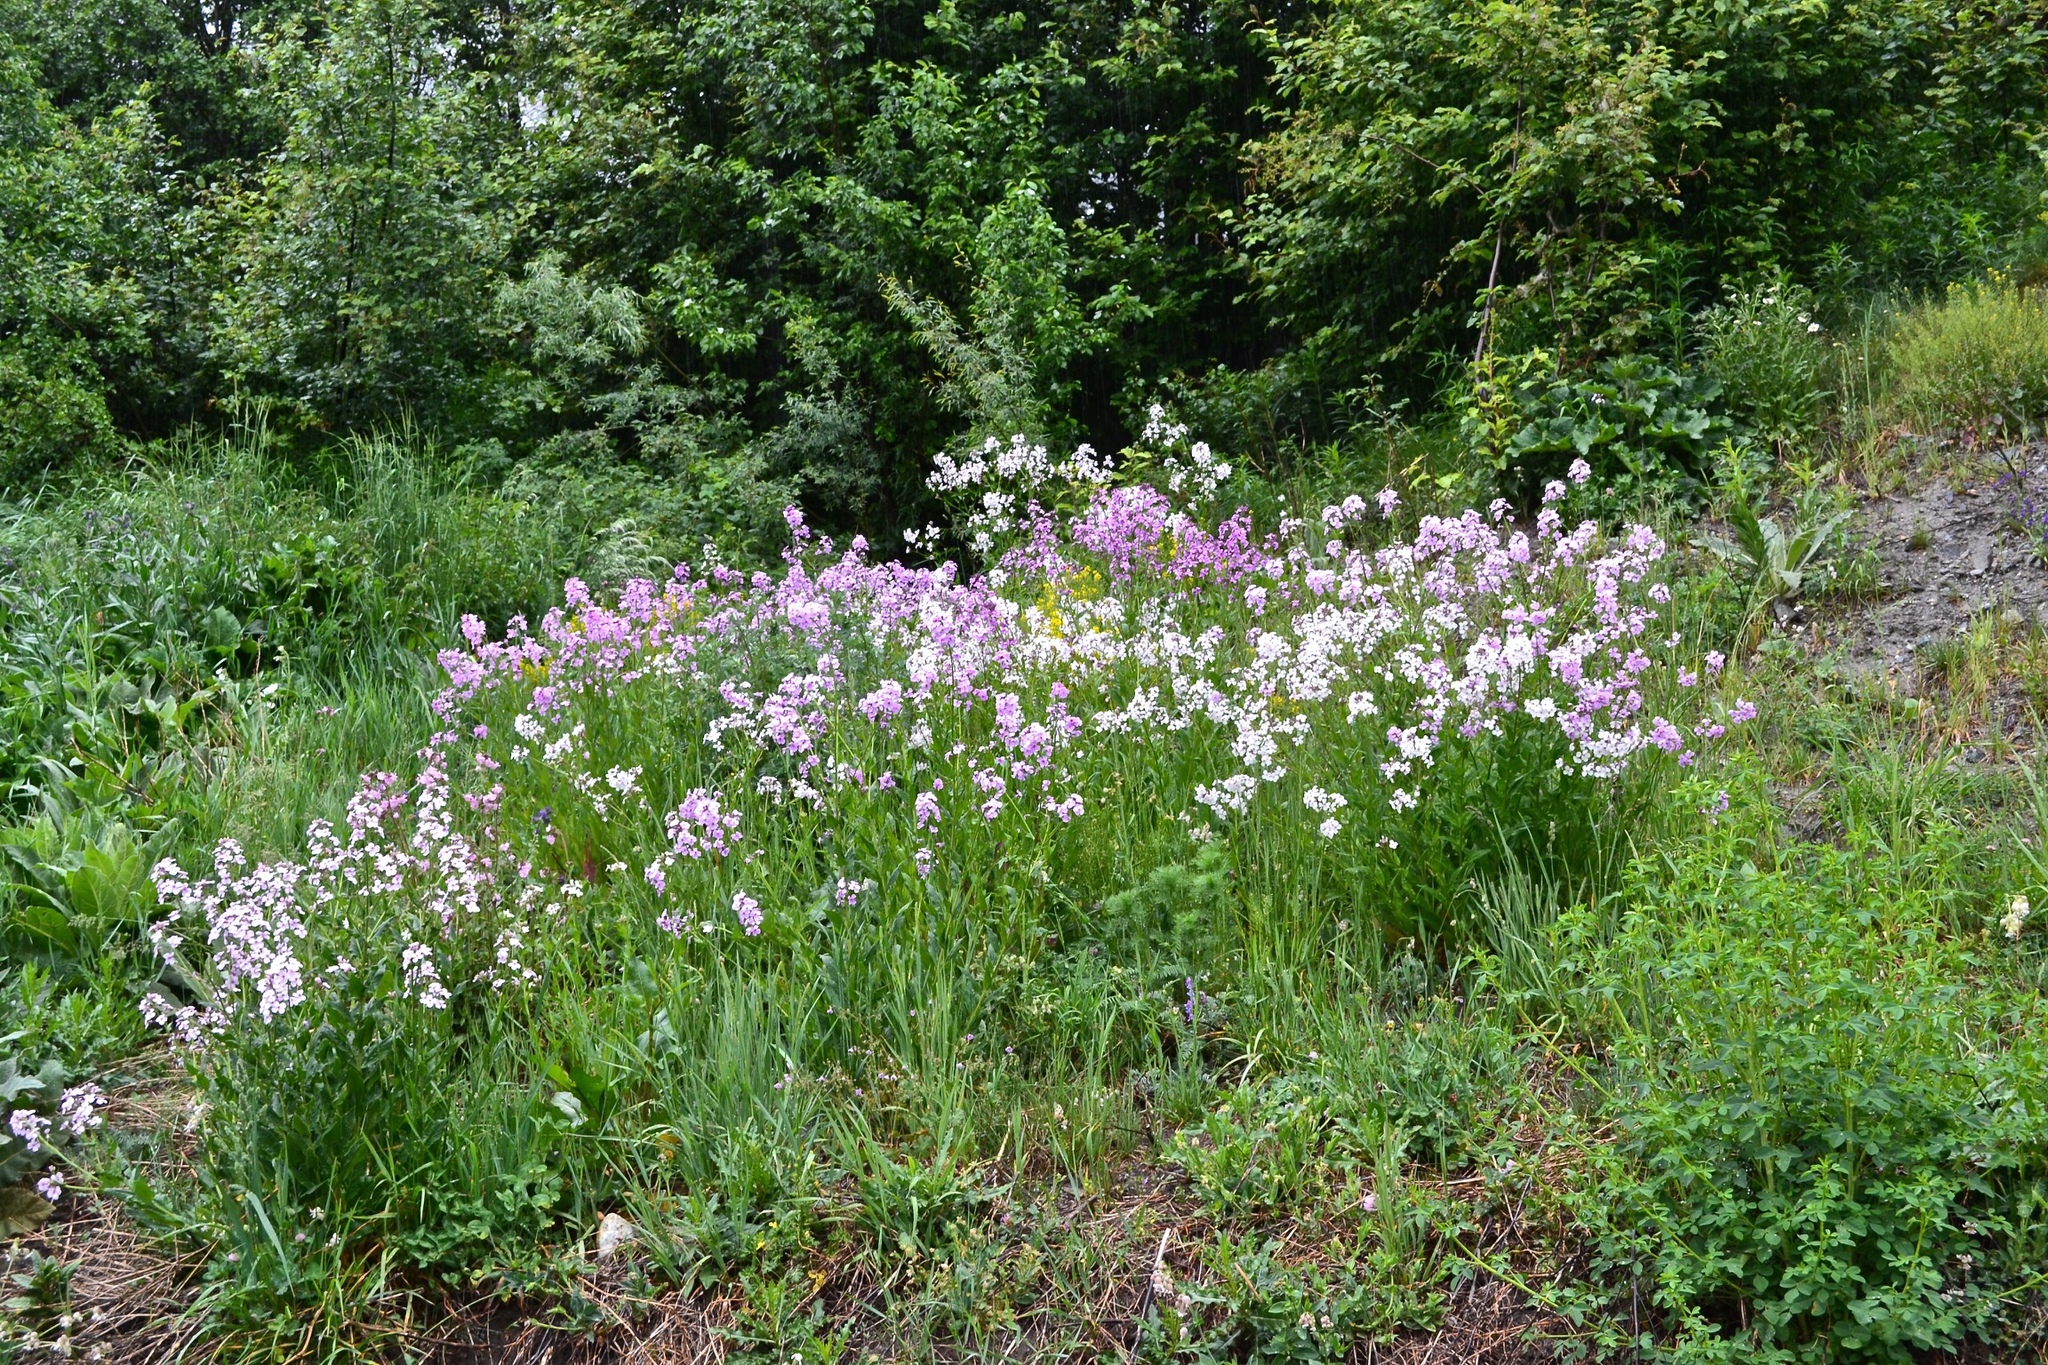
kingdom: Plantae
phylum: Tracheophyta
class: Magnoliopsida
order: Brassicales
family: Brassicaceae
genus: Hesperis
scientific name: Hesperis matronalis
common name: Dame's-violet
